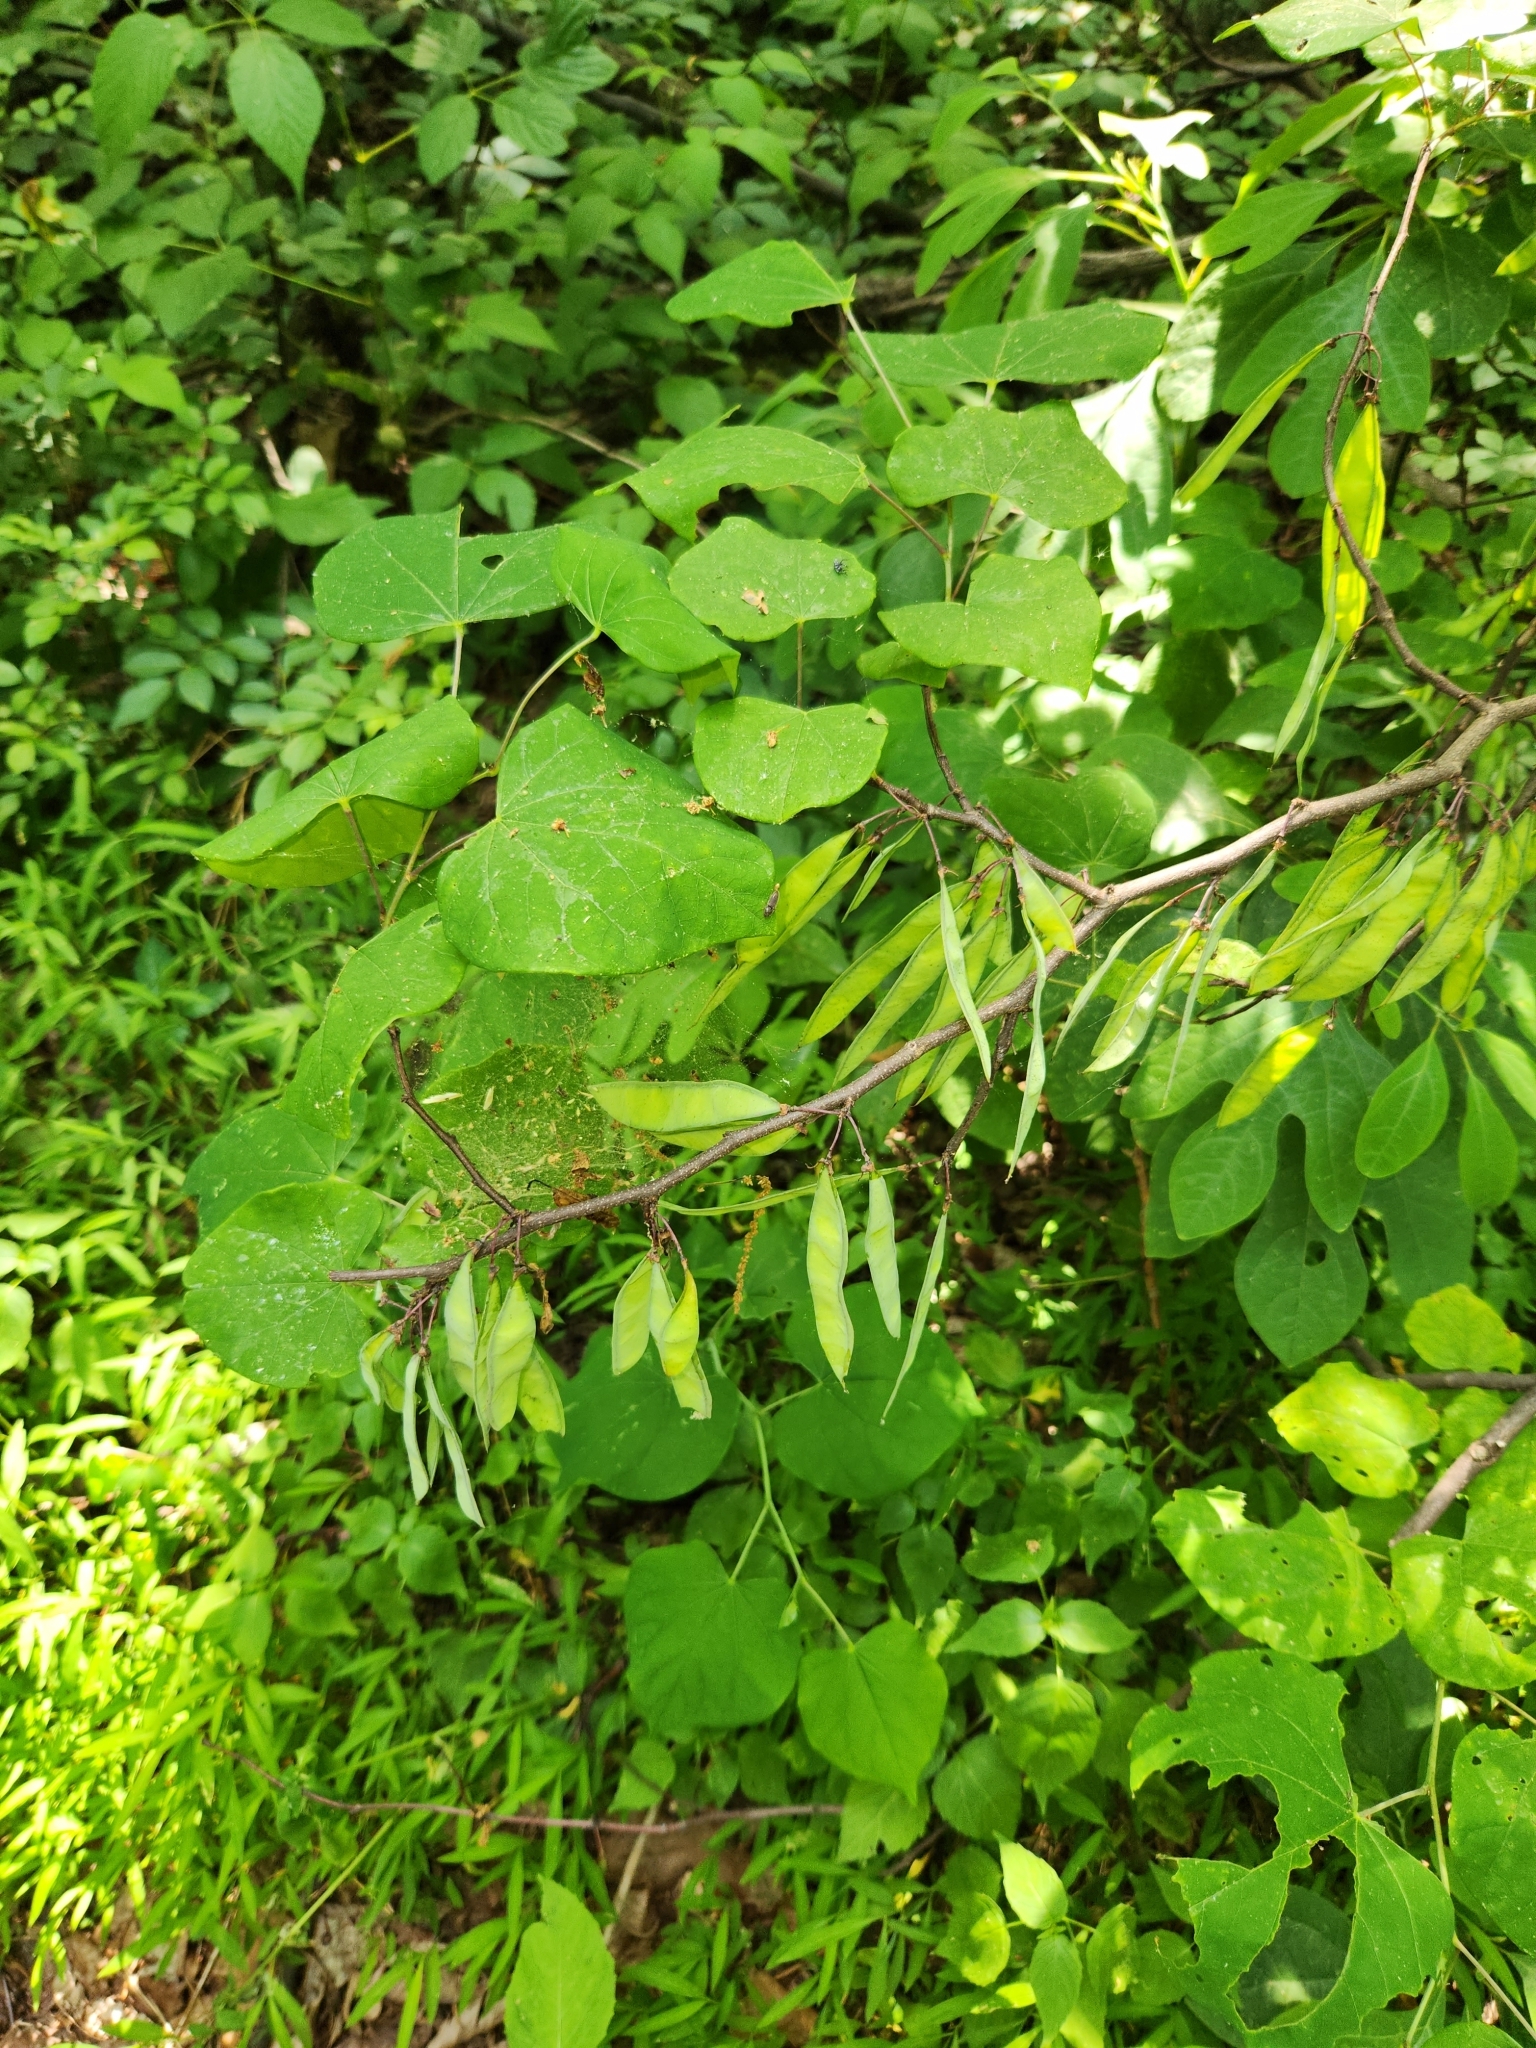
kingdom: Plantae
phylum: Tracheophyta
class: Magnoliopsida
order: Fabales
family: Fabaceae
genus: Cercis
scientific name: Cercis canadensis
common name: Eastern redbud
